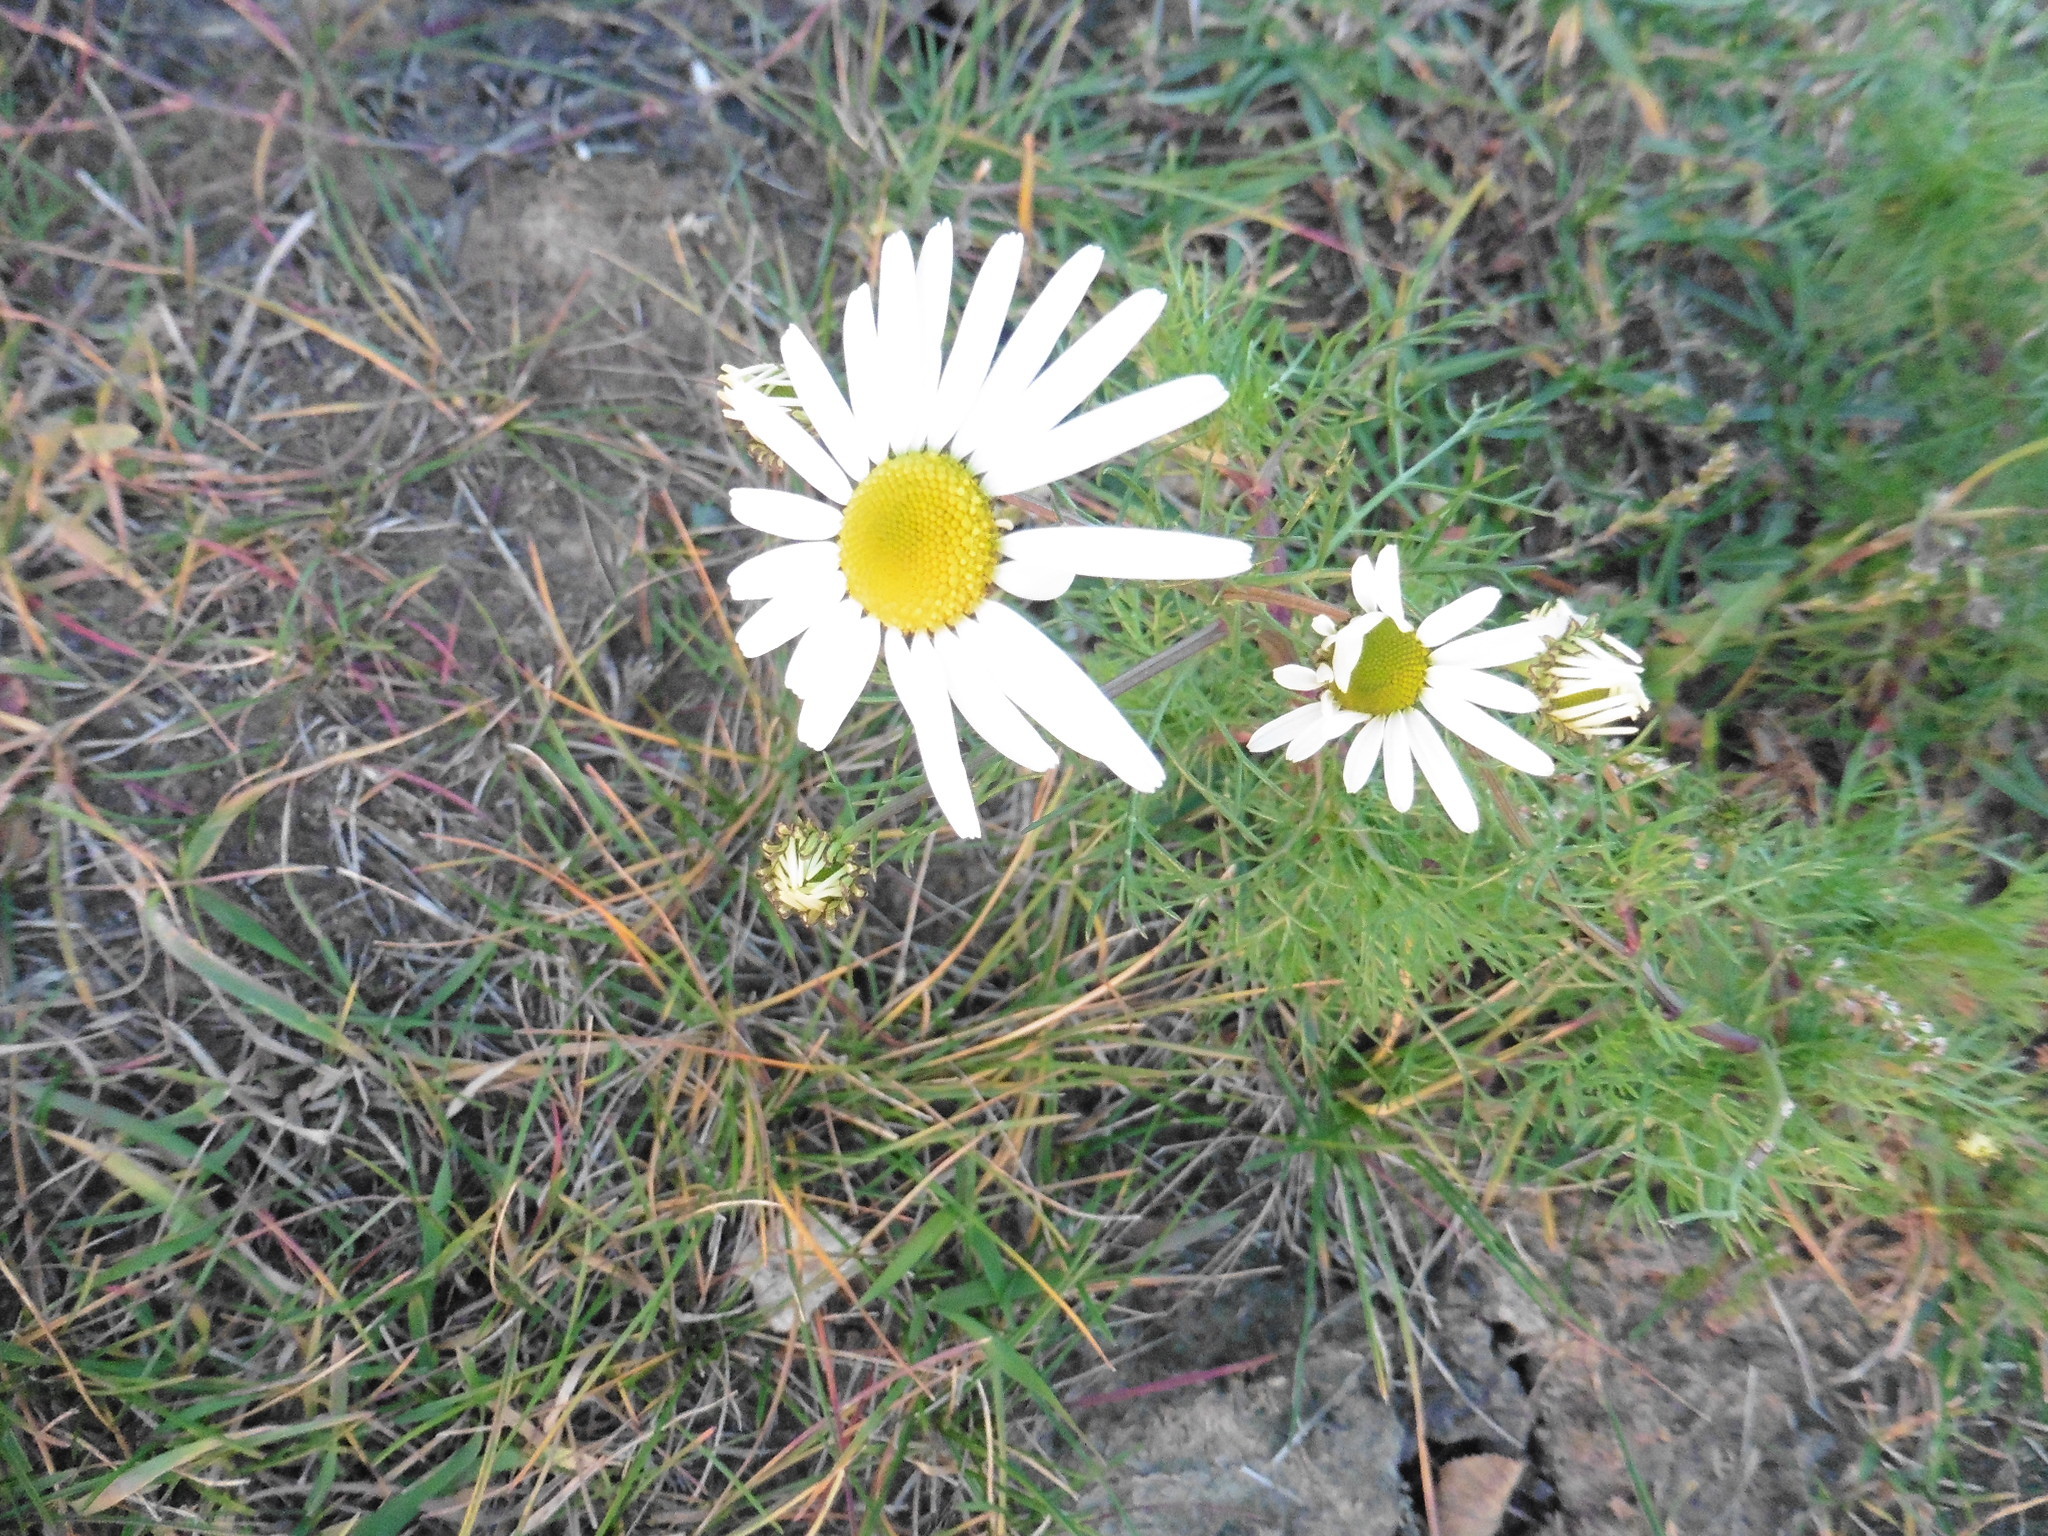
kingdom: Plantae
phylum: Tracheophyta
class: Magnoliopsida
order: Asterales
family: Asteraceae
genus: Tripleurospermum
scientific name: Tripleurospermum inodorum
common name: Scentless mayweed
